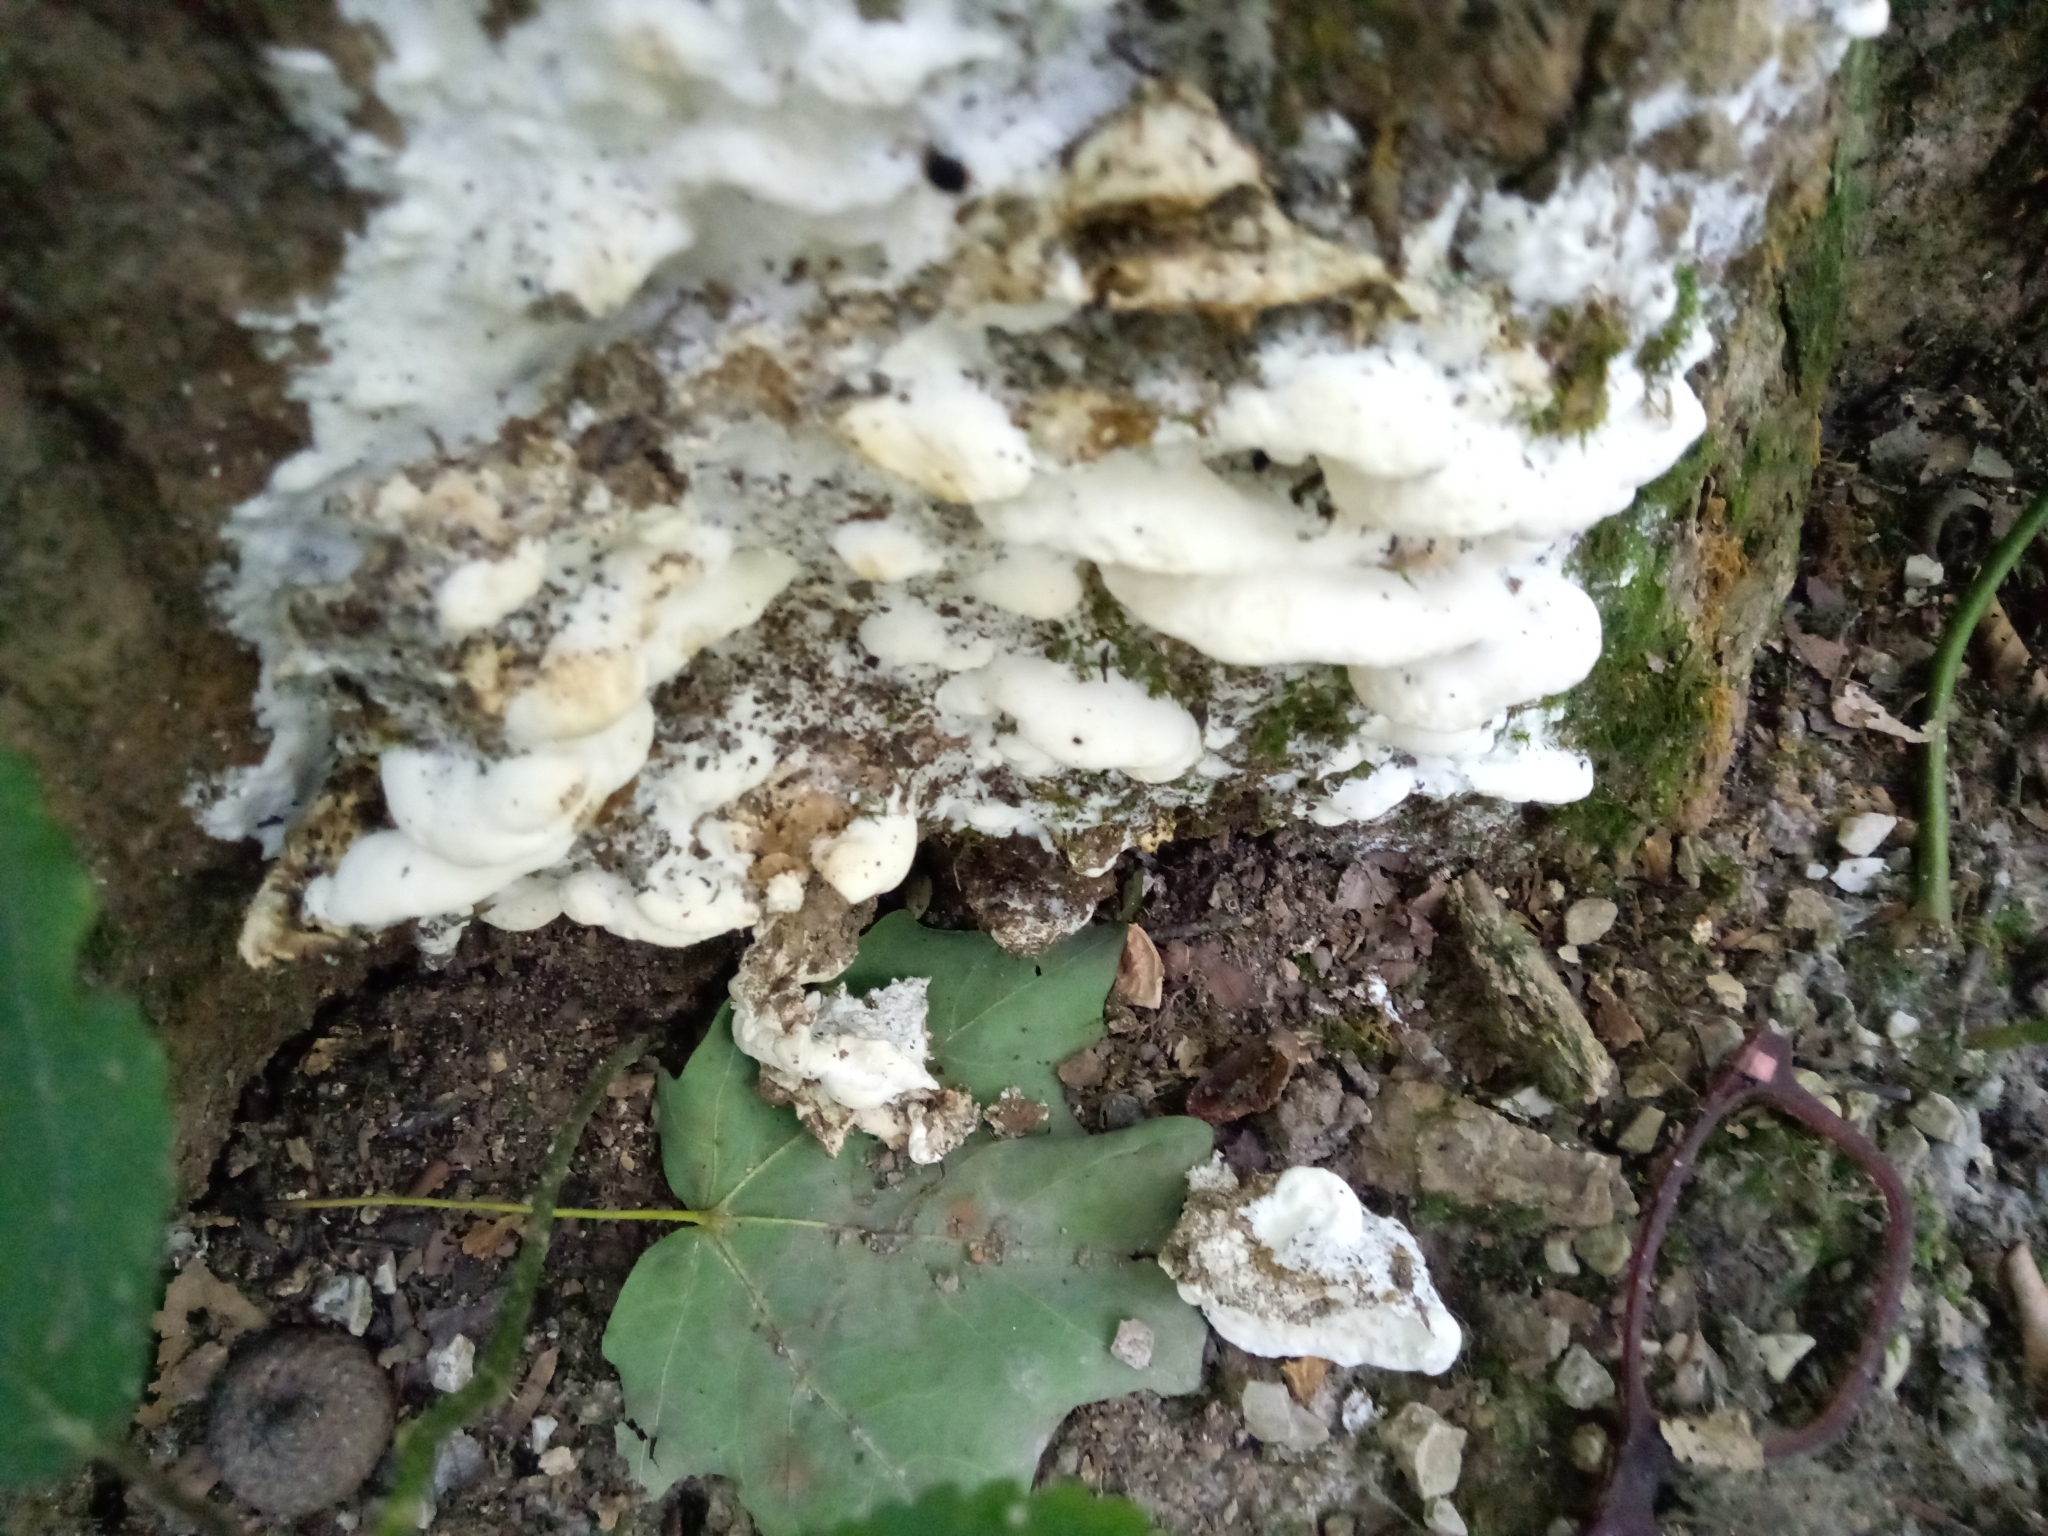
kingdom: Fungi
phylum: Basidiomycota
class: Agaricomycetes
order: Hymenochaetales
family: Oxyporaceae
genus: Oxyporus
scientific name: Oxyporus populinus
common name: Poplar bracket
